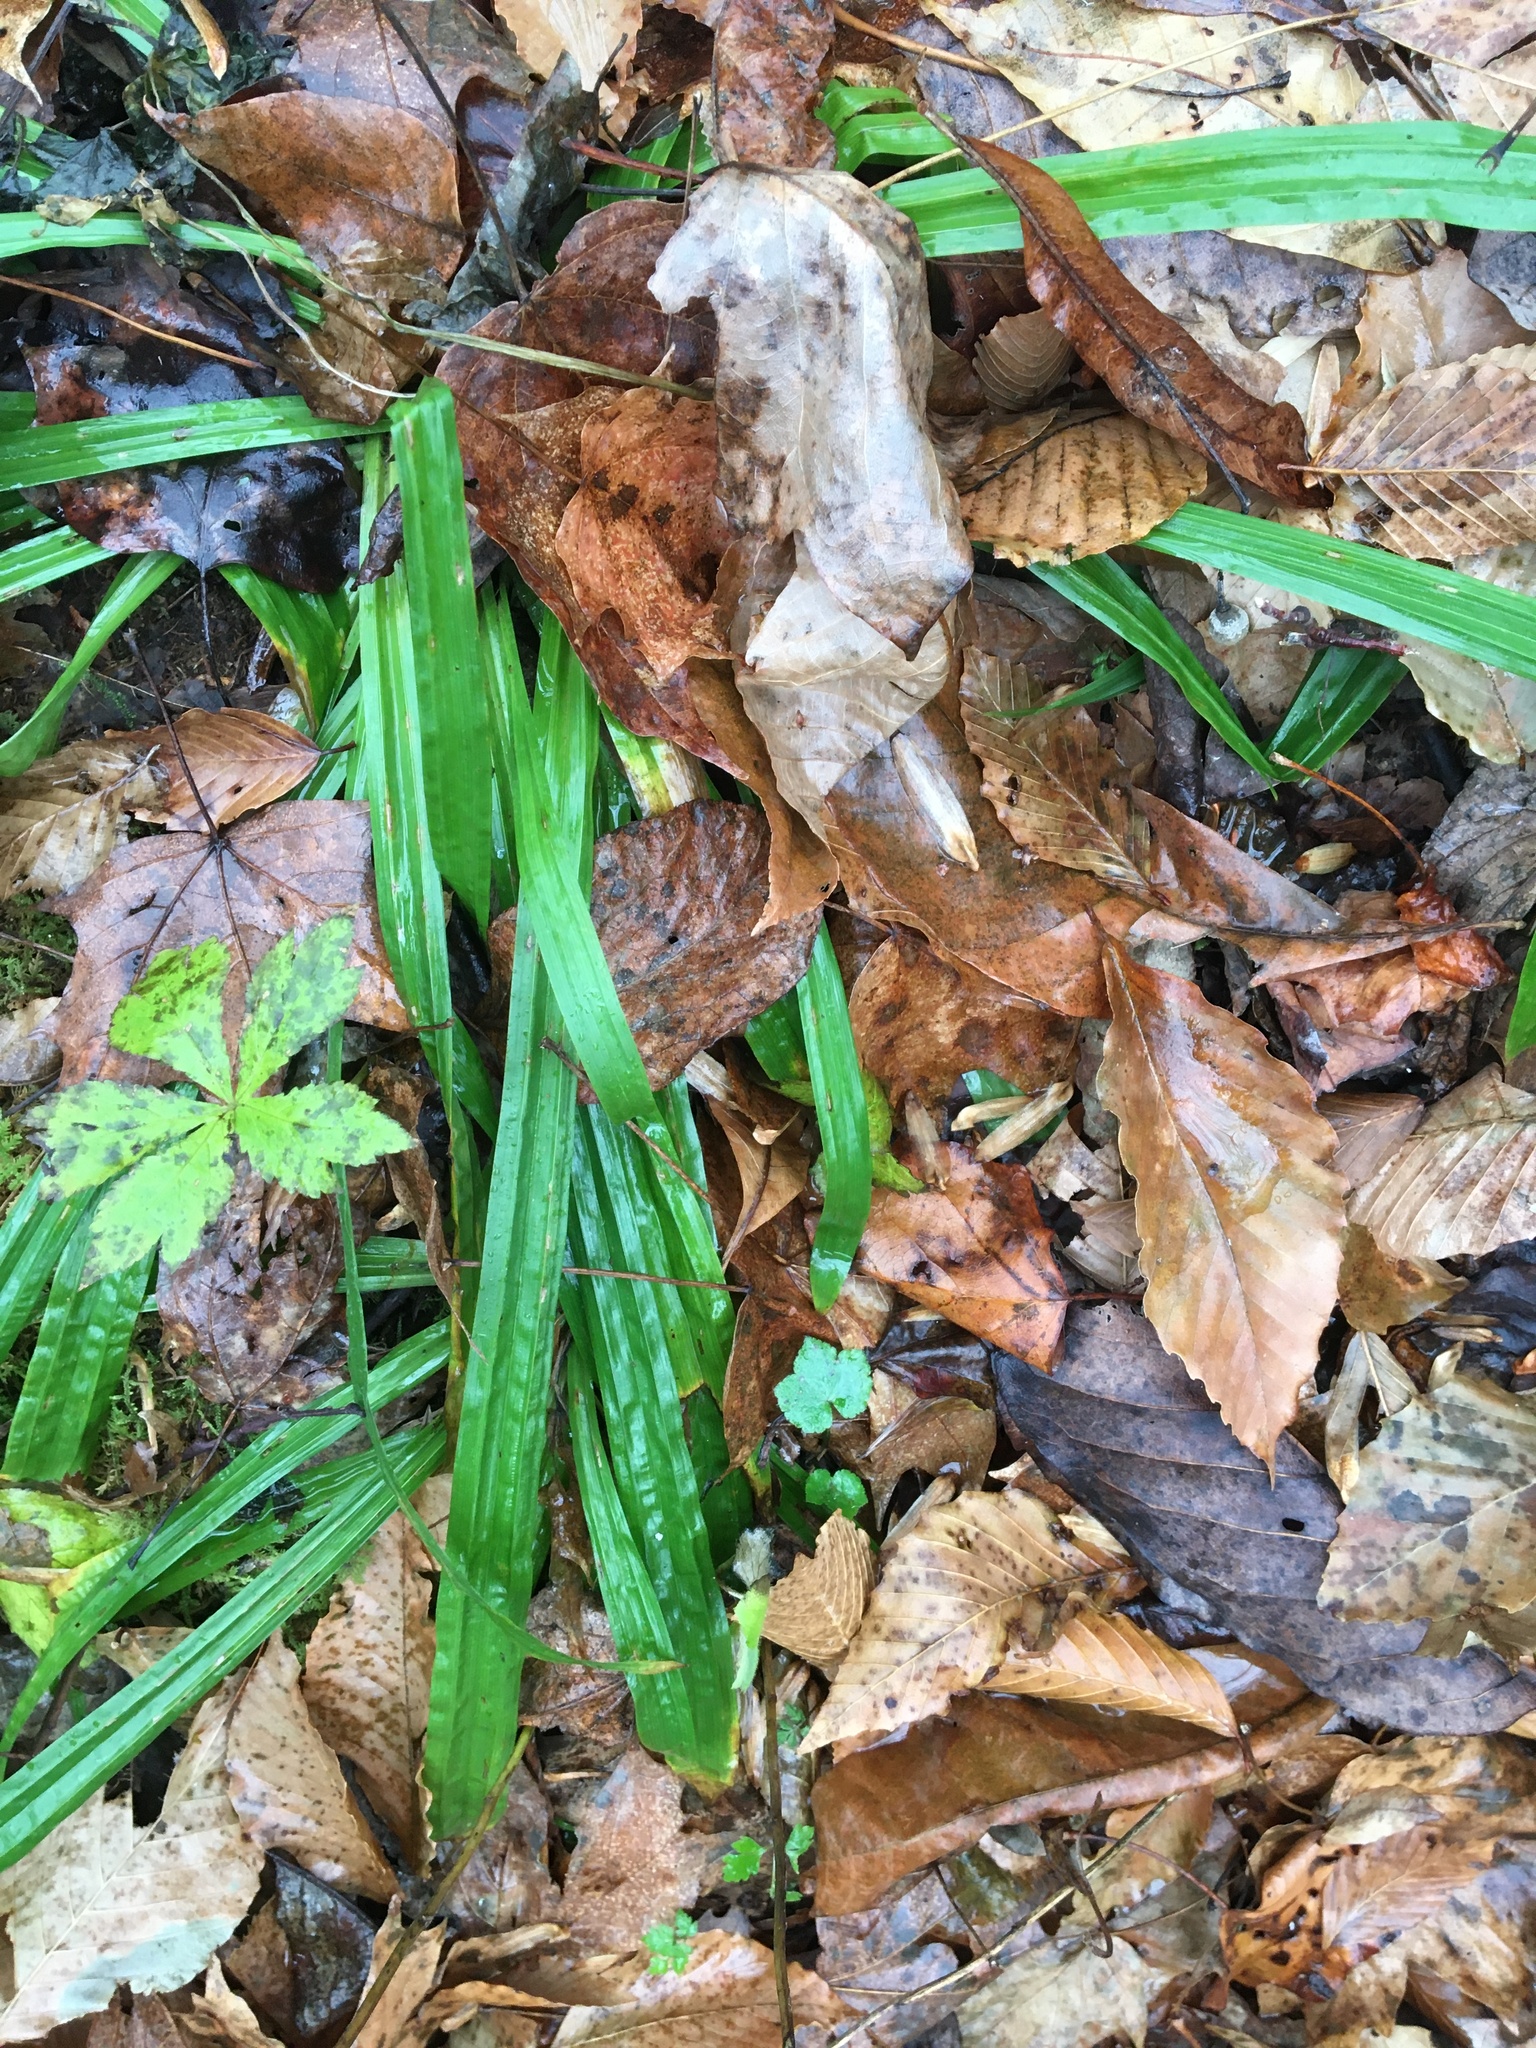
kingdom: Plantae
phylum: Tracheophyta
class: Liliopsida
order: Poales
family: Cyperaceae
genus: Carex
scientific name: Carex plantaginea
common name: Plantain-leaved sedge
